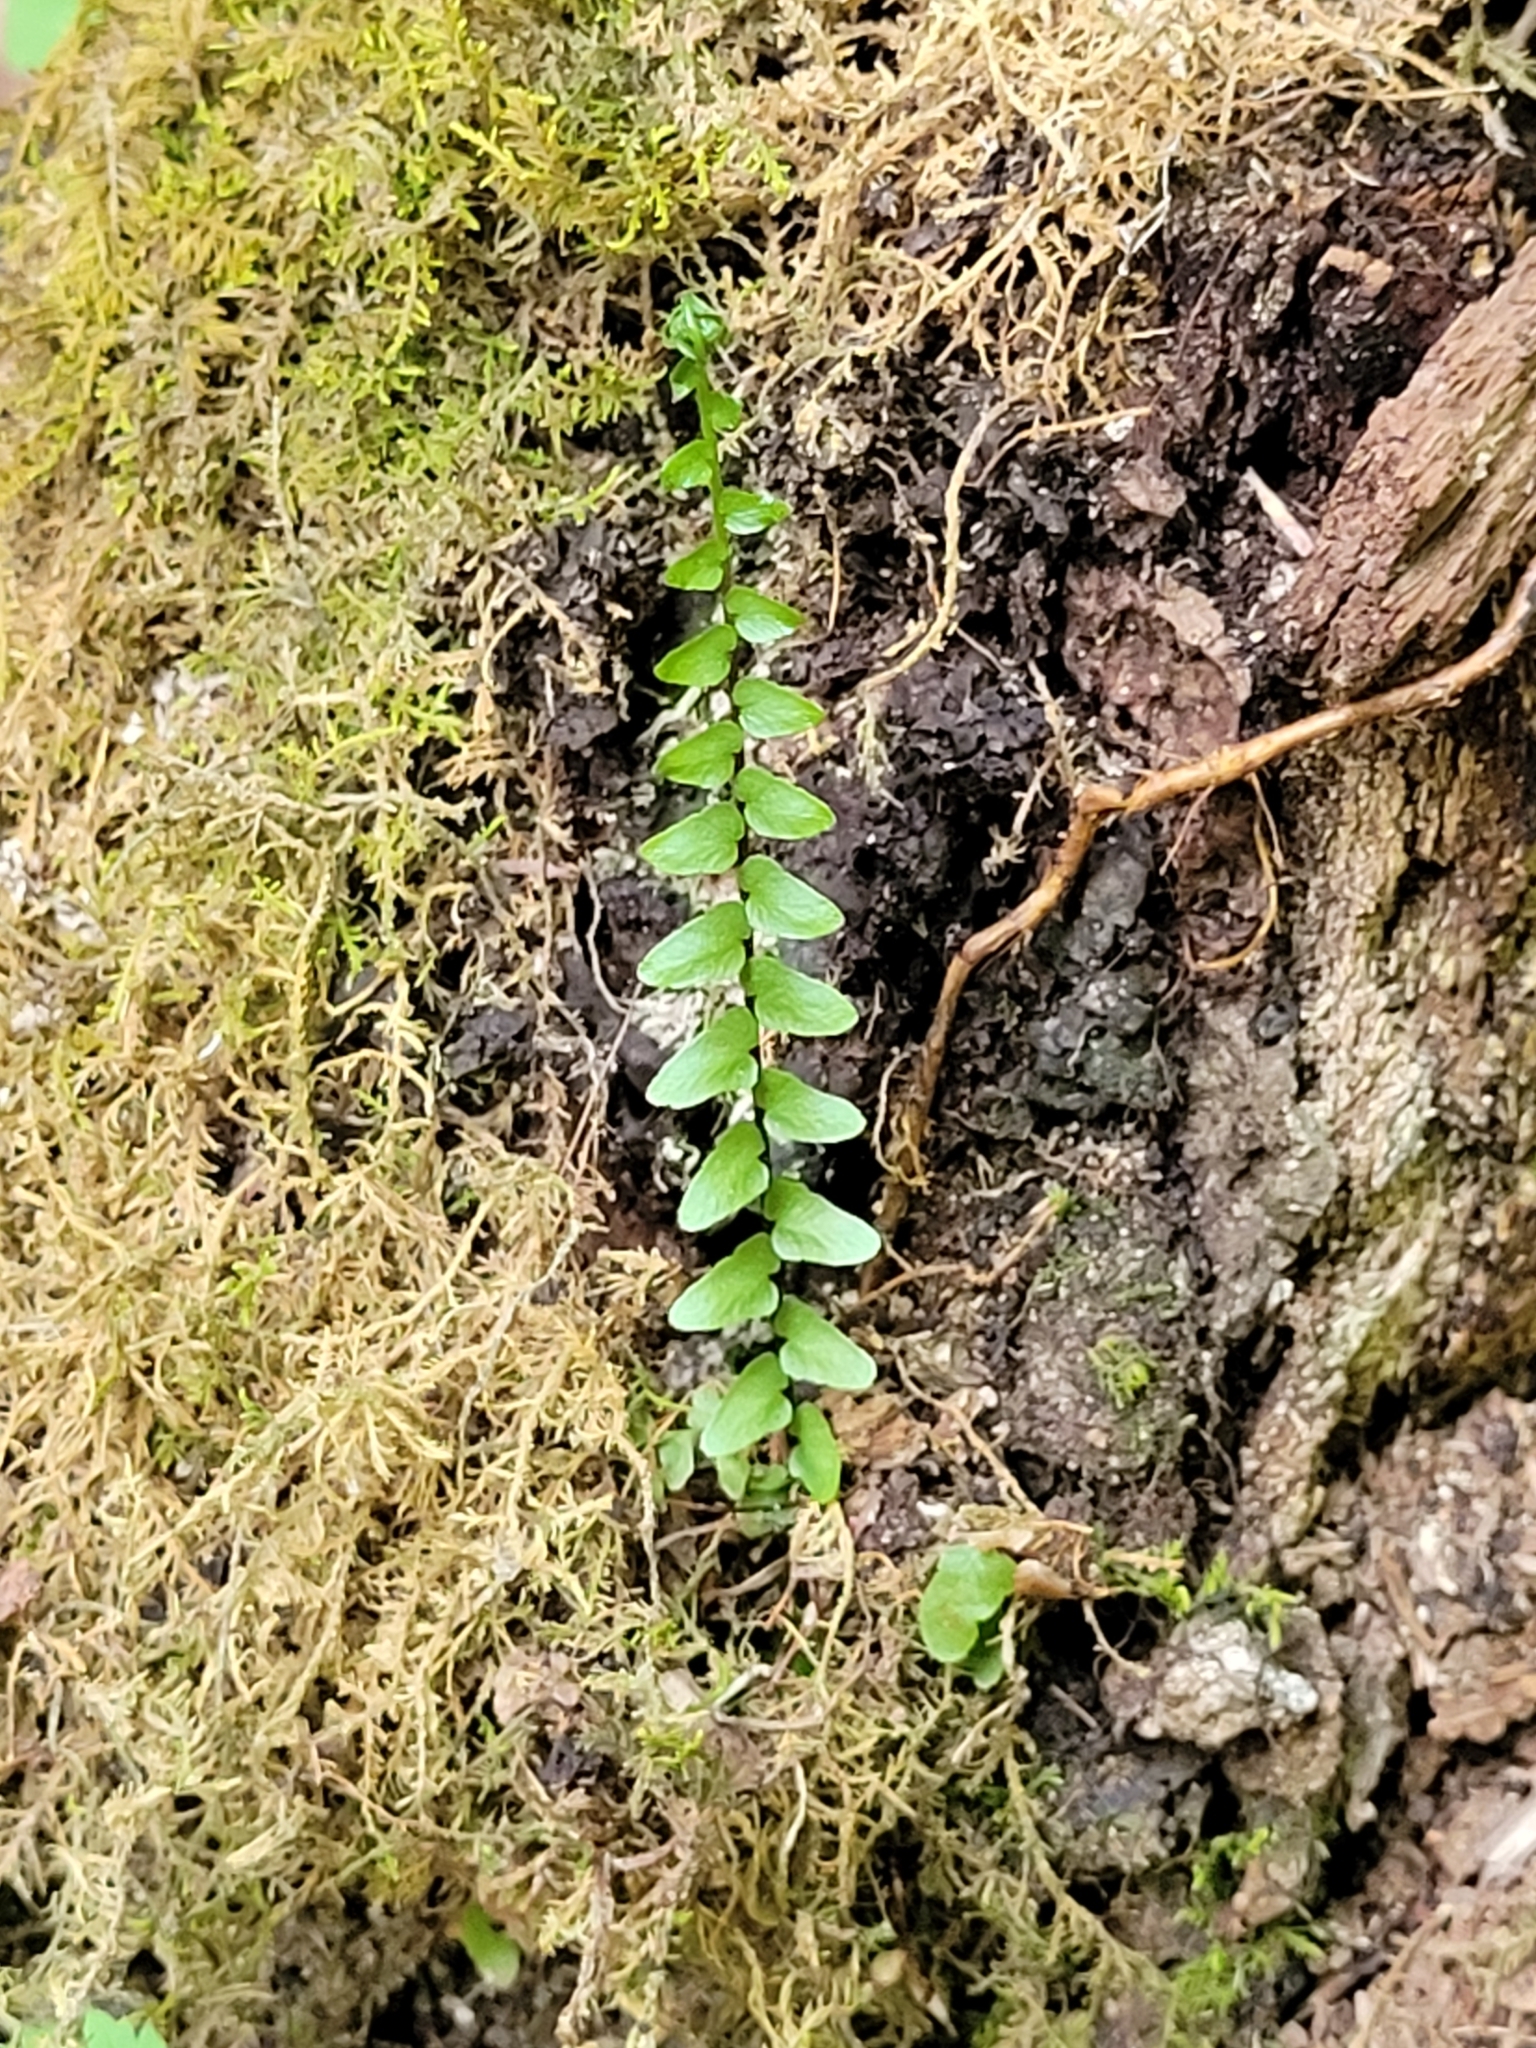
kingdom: Plantae
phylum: Tracheophyta
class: Polypodiopsida
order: Polypodiales
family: Aspleniaceae
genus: Asplenium
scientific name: Asplenium platyneuron
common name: Ebony spleenwort
